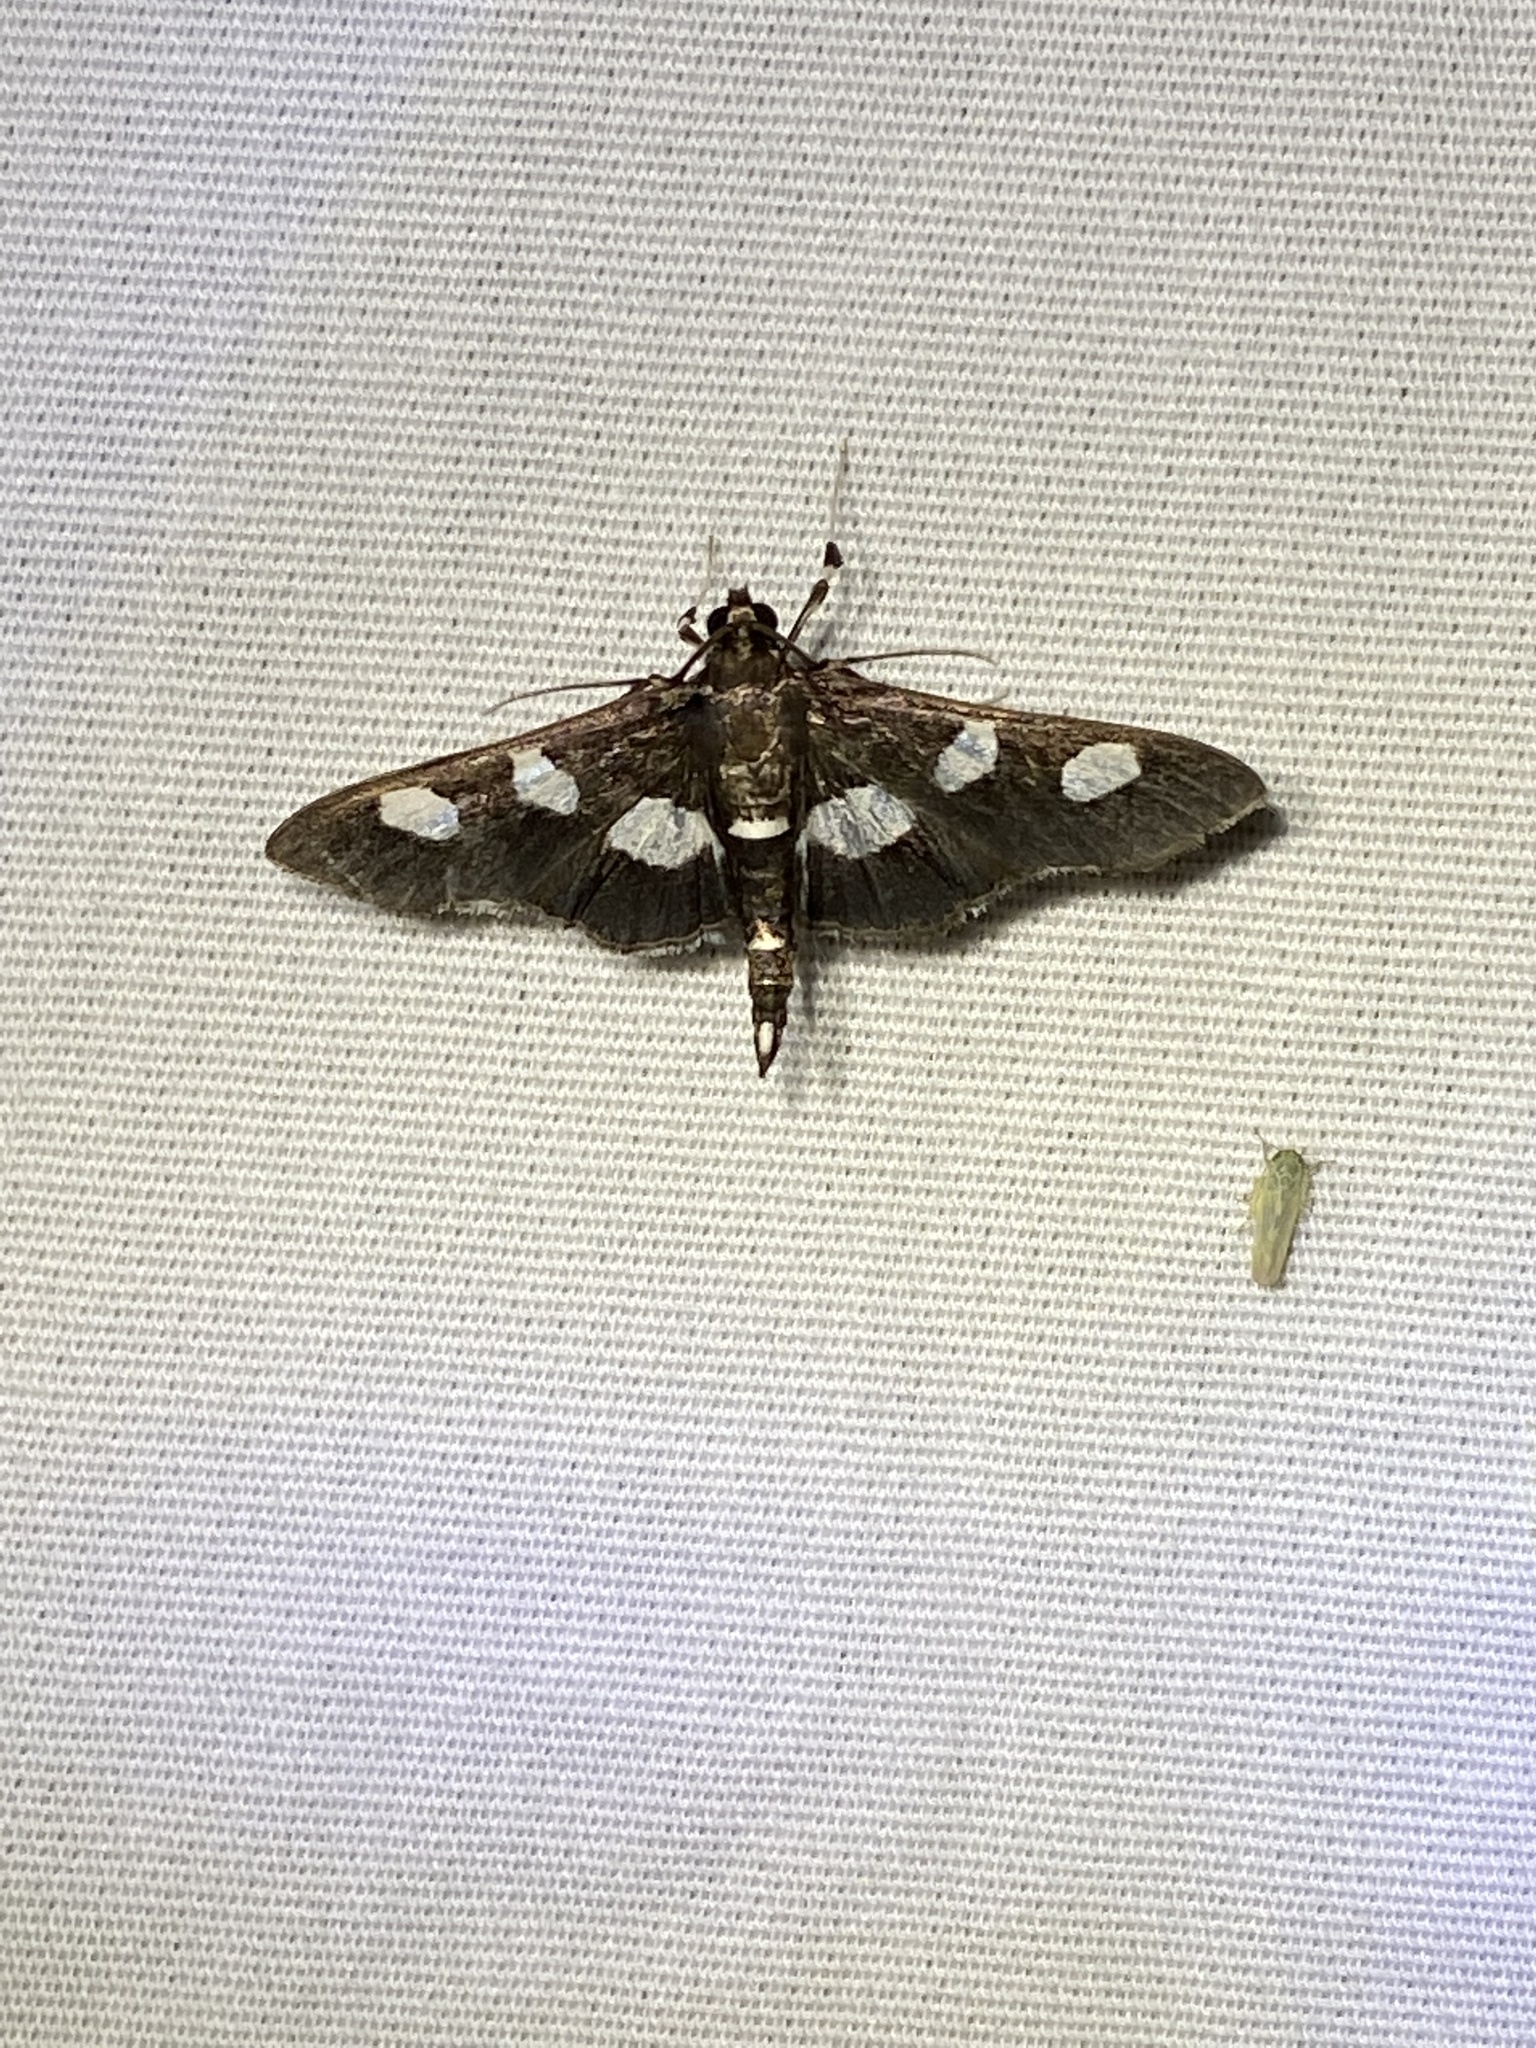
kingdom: Animalia
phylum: Arthropoda
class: Insecta
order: Lepidoptera
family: Crambidae
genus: Desmia
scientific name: Desmia
